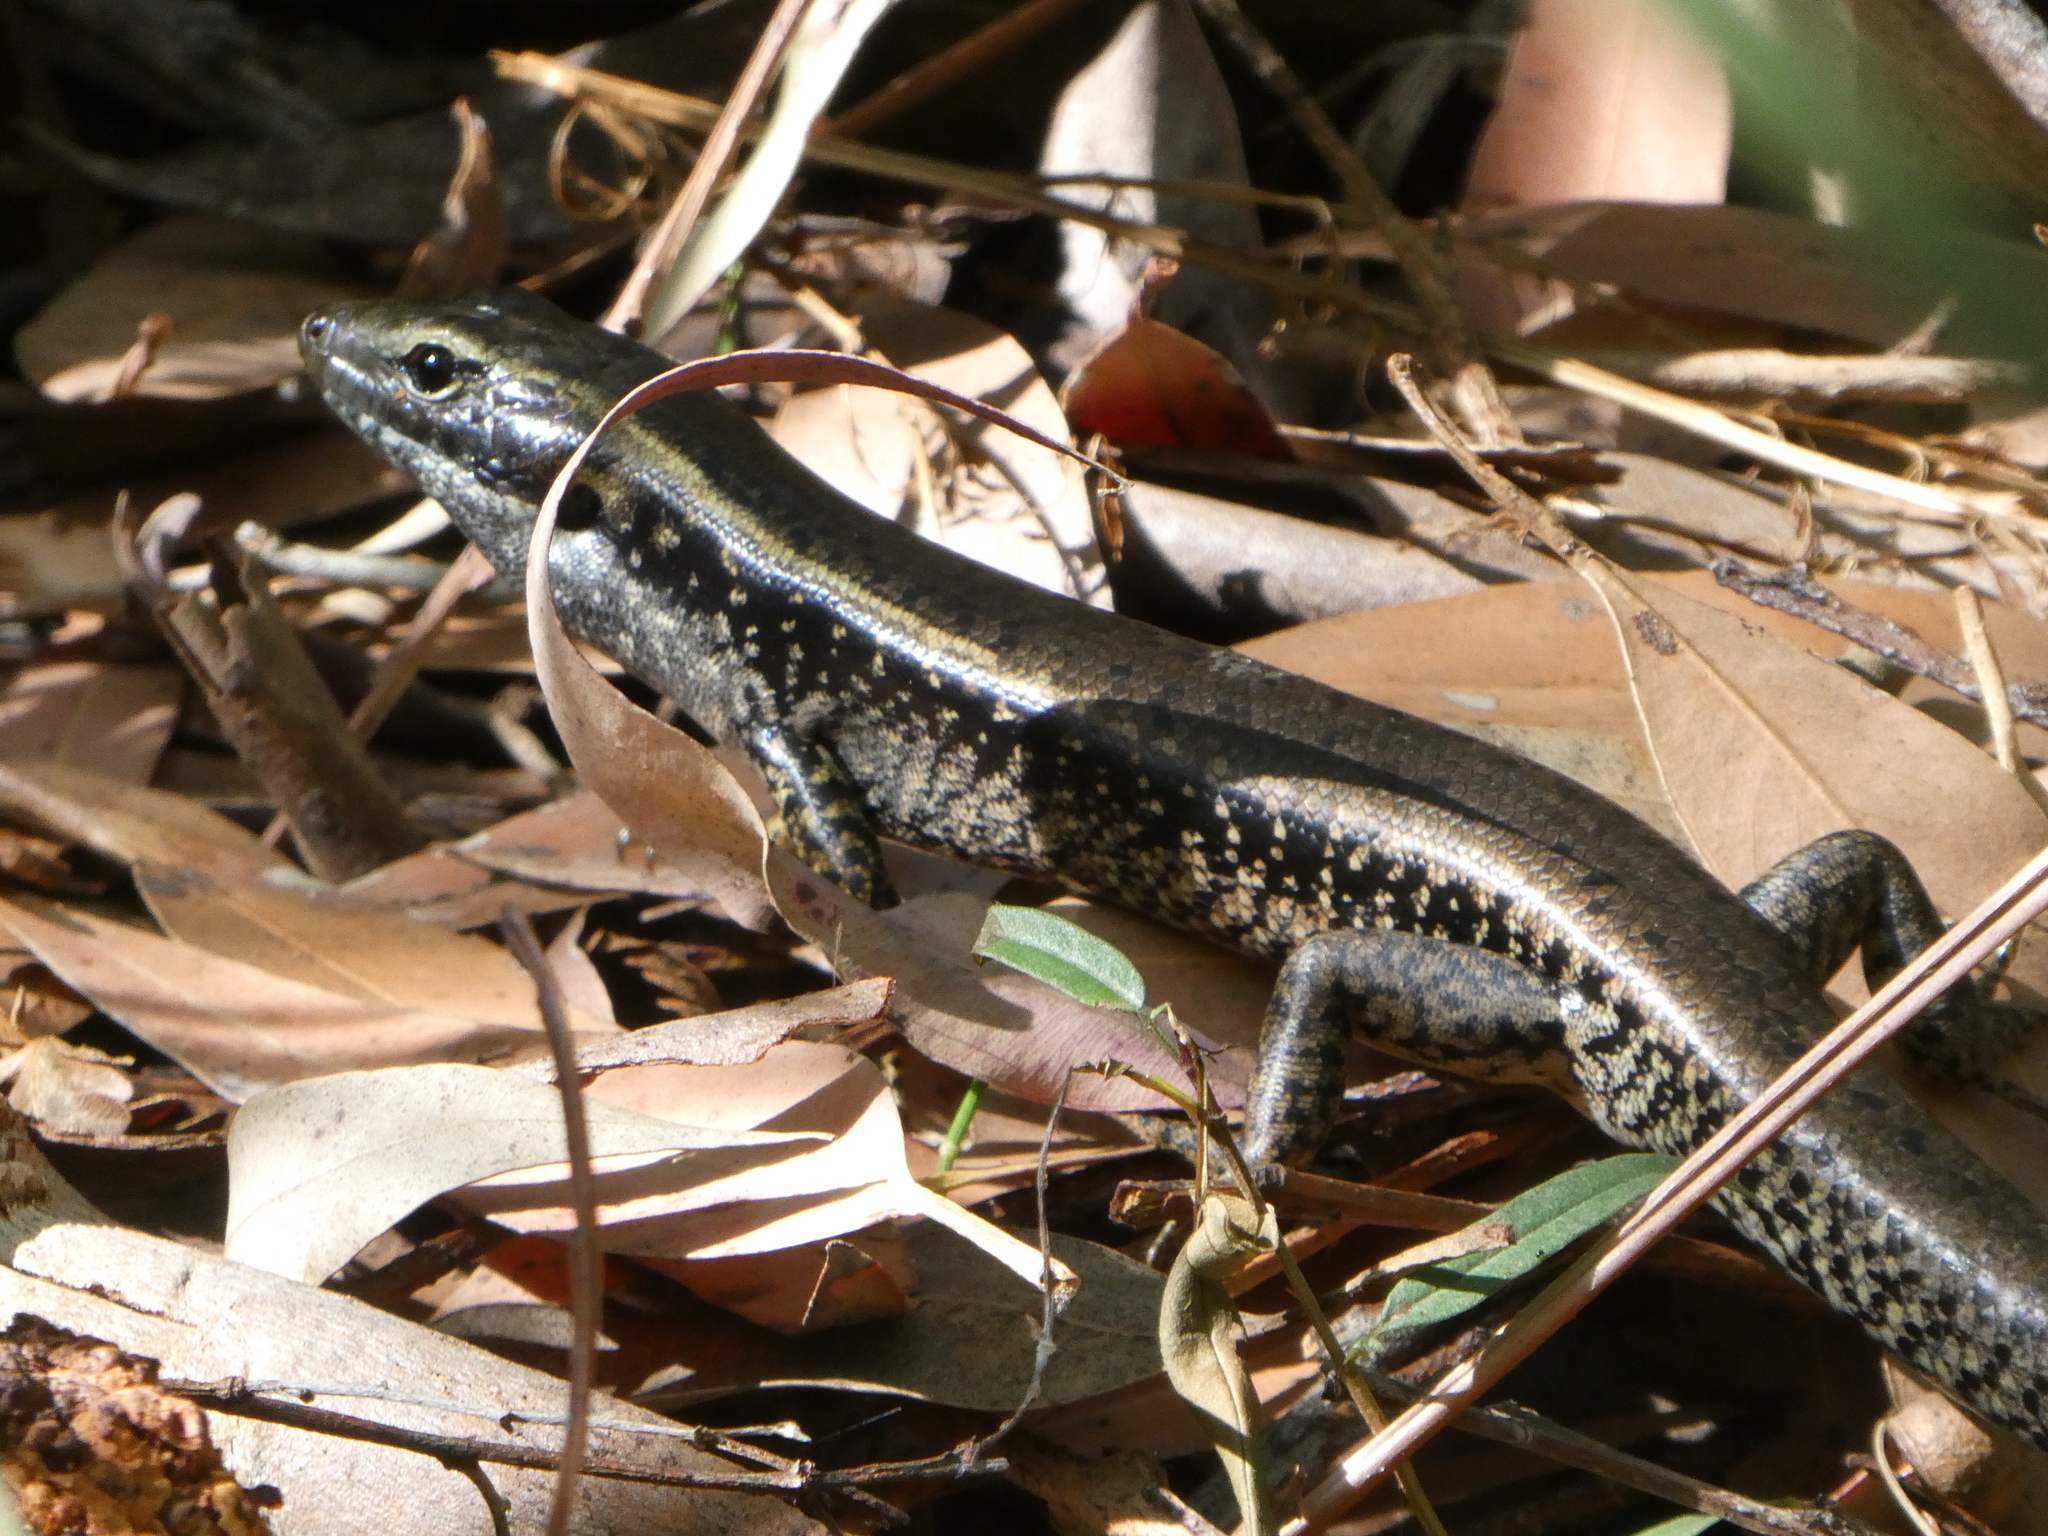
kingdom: Animalia
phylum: Chordata
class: Squamata
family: Scincidae
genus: Eulamprus
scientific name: Eulamprus quoyii
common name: Eastern water skink
